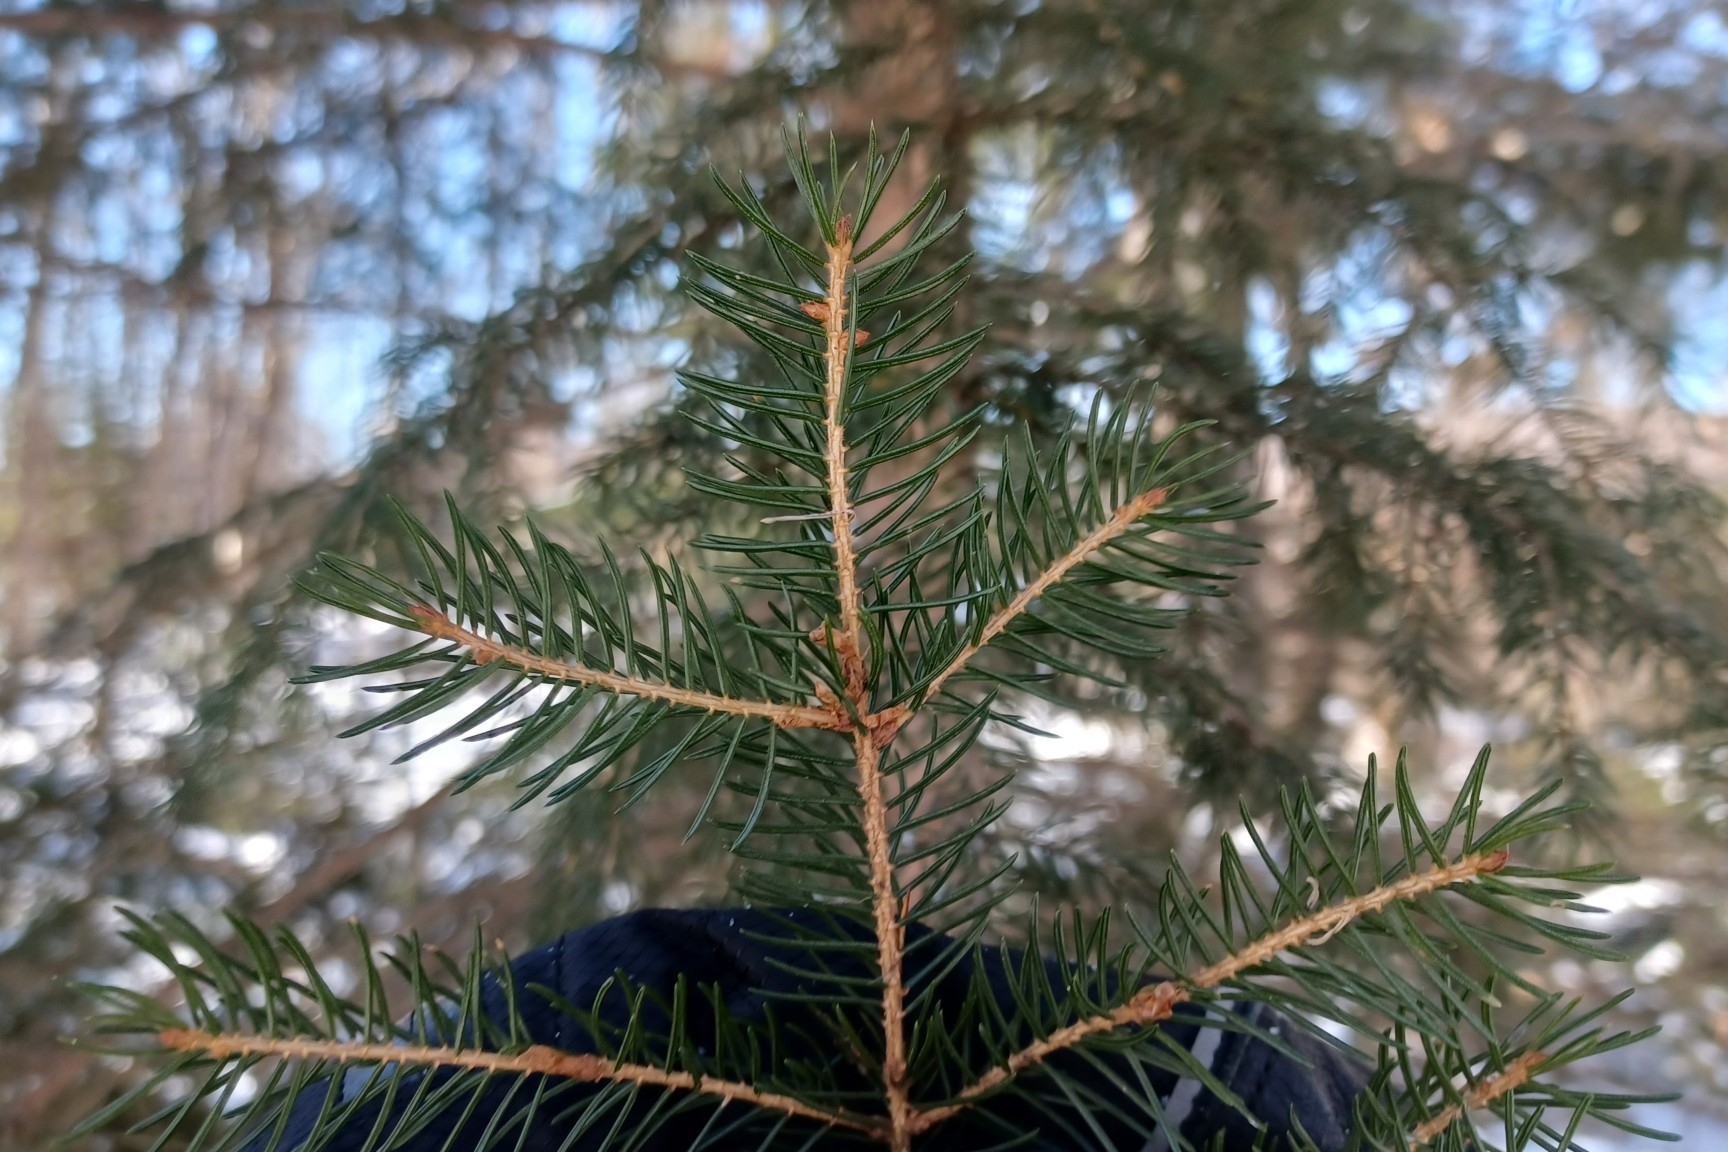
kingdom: Plantae
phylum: Tracheophyta
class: Pinopsida
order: Pinales
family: Pinaceae
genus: Picea
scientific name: Picea rubens
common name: Red spruce
